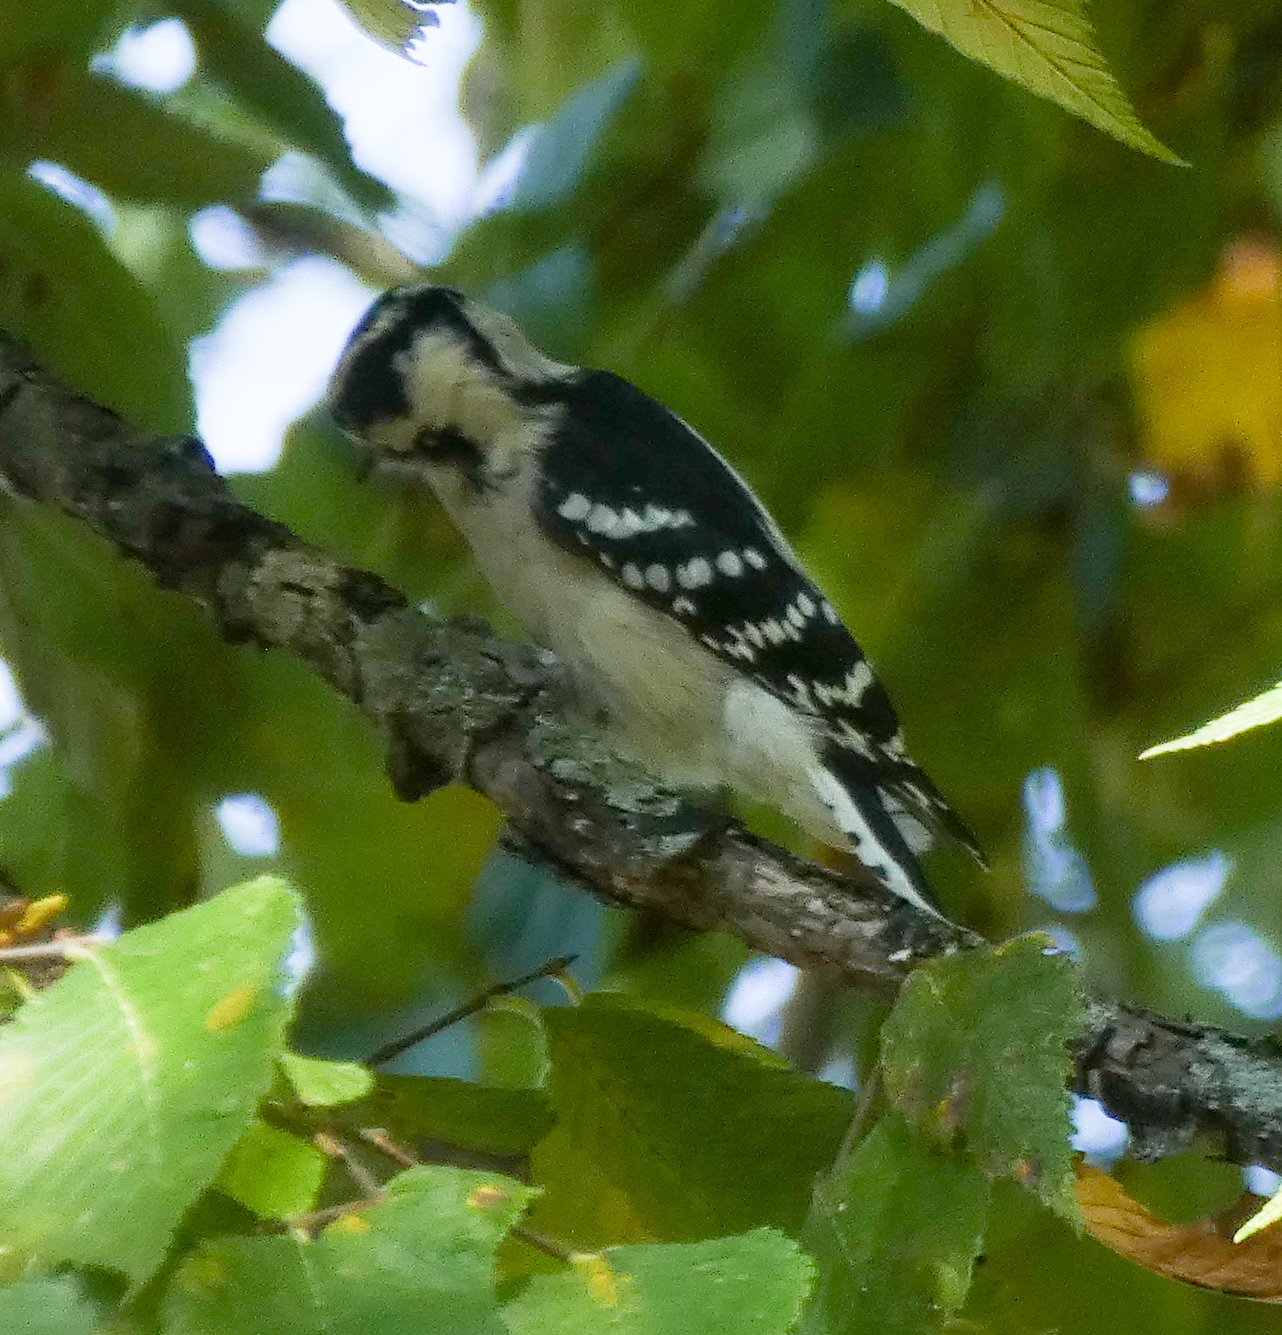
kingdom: Animalia
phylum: Chordata
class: Aves
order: Piciformes
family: Picidae
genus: Dryobates
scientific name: Dryobates pubescens
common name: Downy woodpecker
